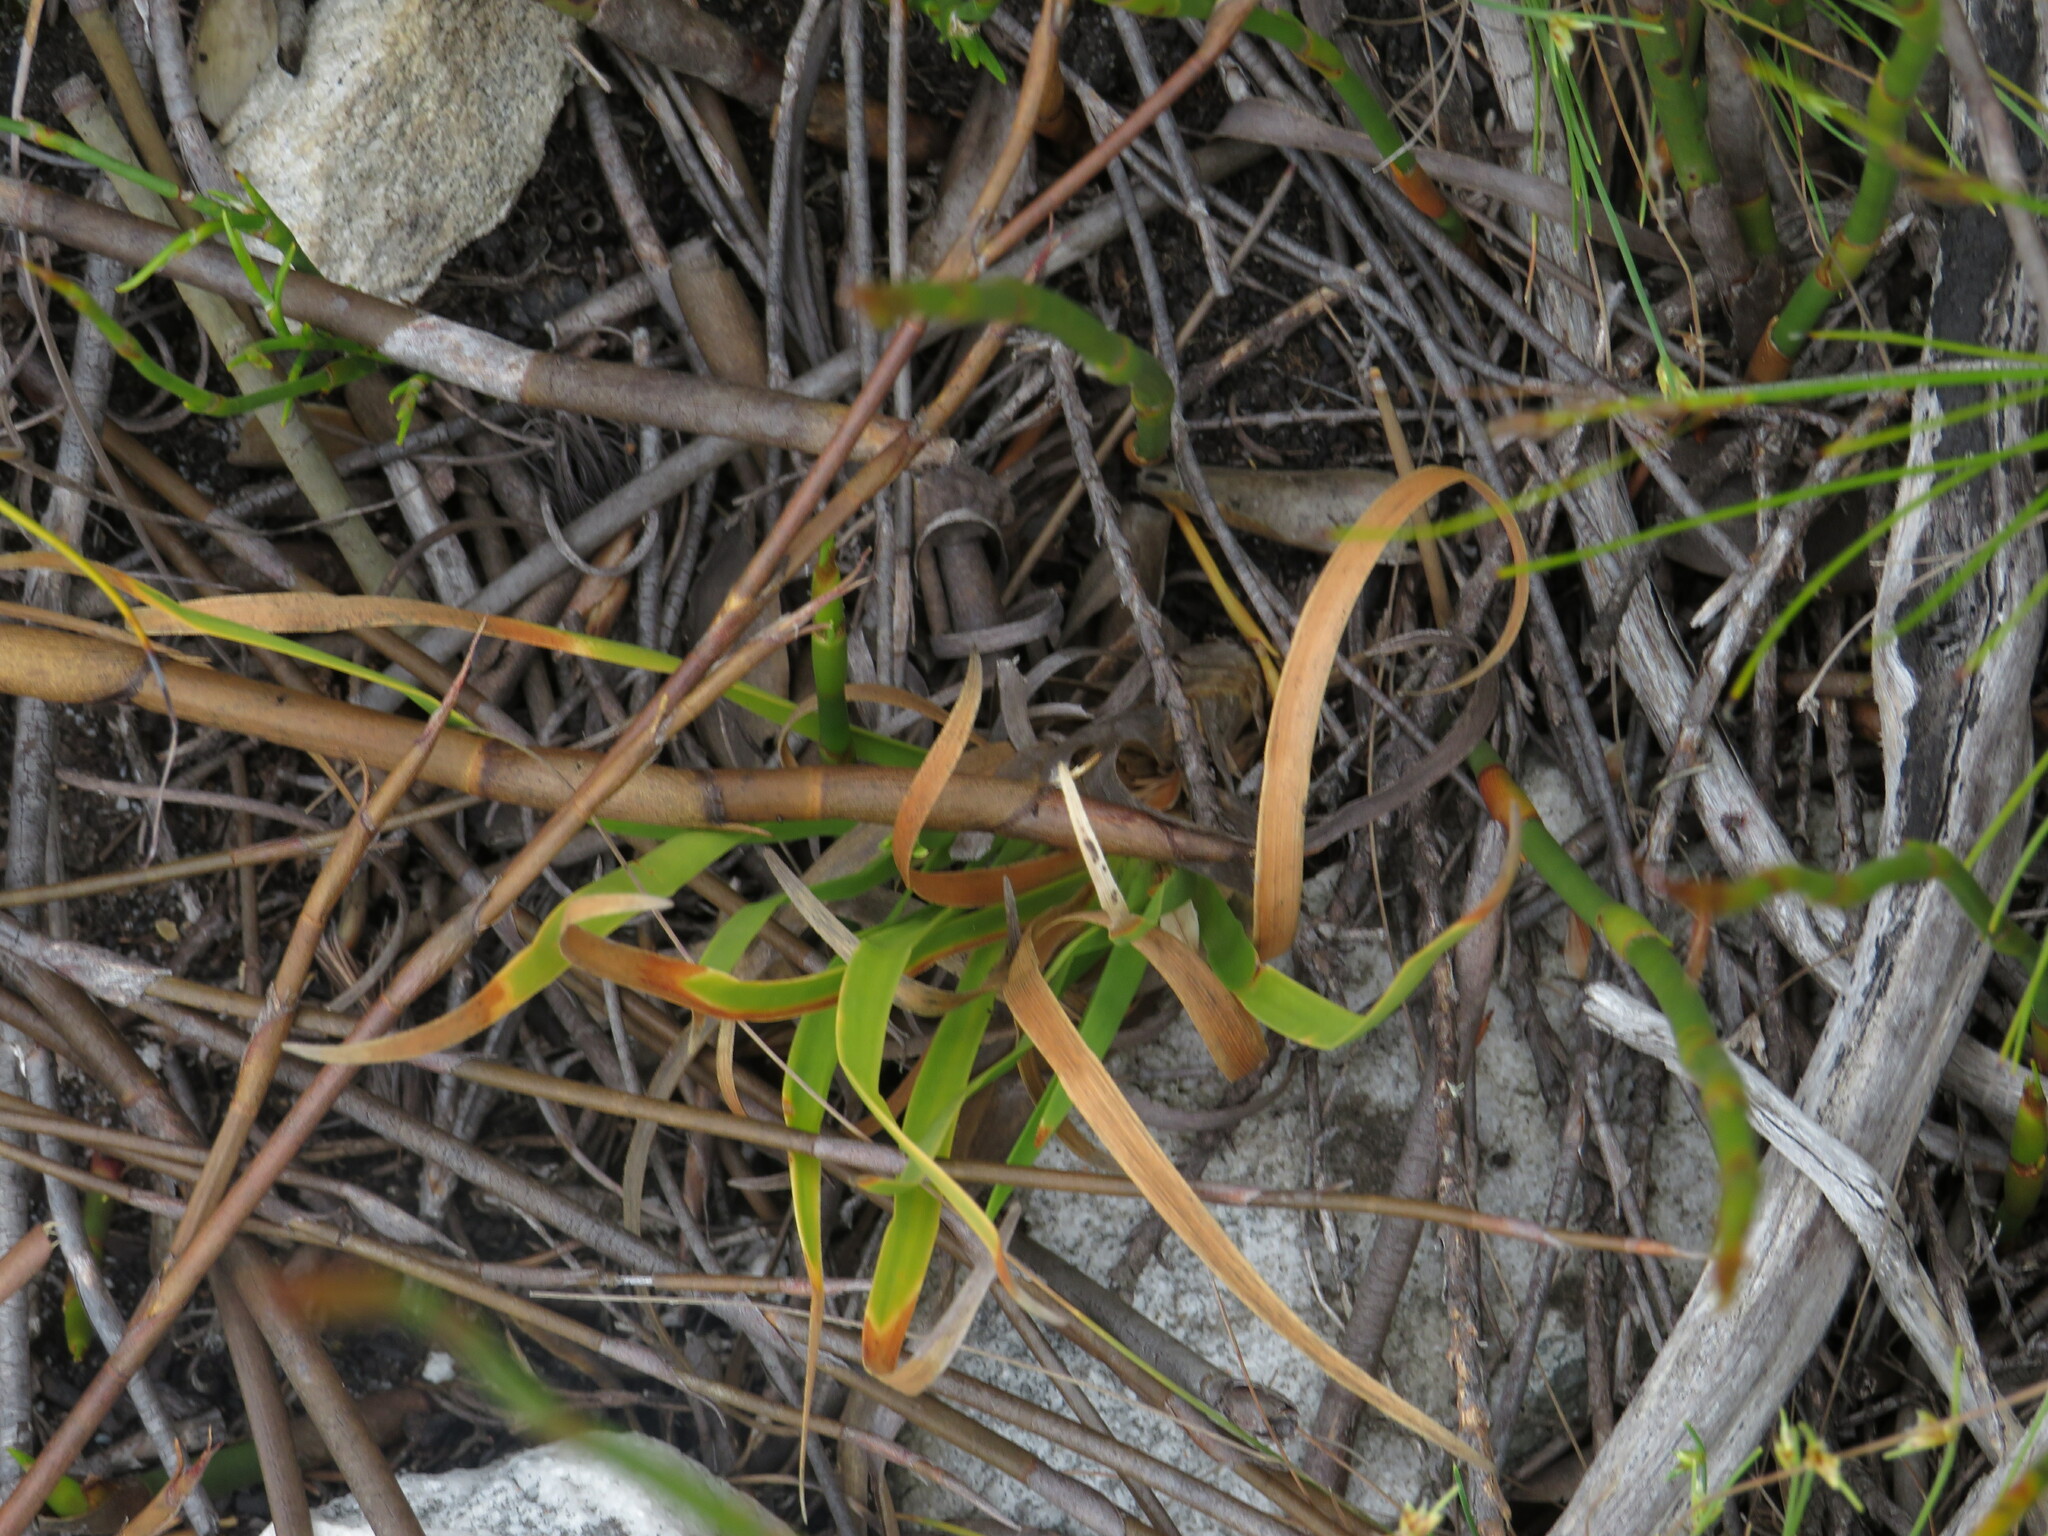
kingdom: Plantae
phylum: Tracheophyta
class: Liliopsida
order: Poales
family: Cyperaceae
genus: Capeobolus
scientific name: Capeobolus brevicaulis
